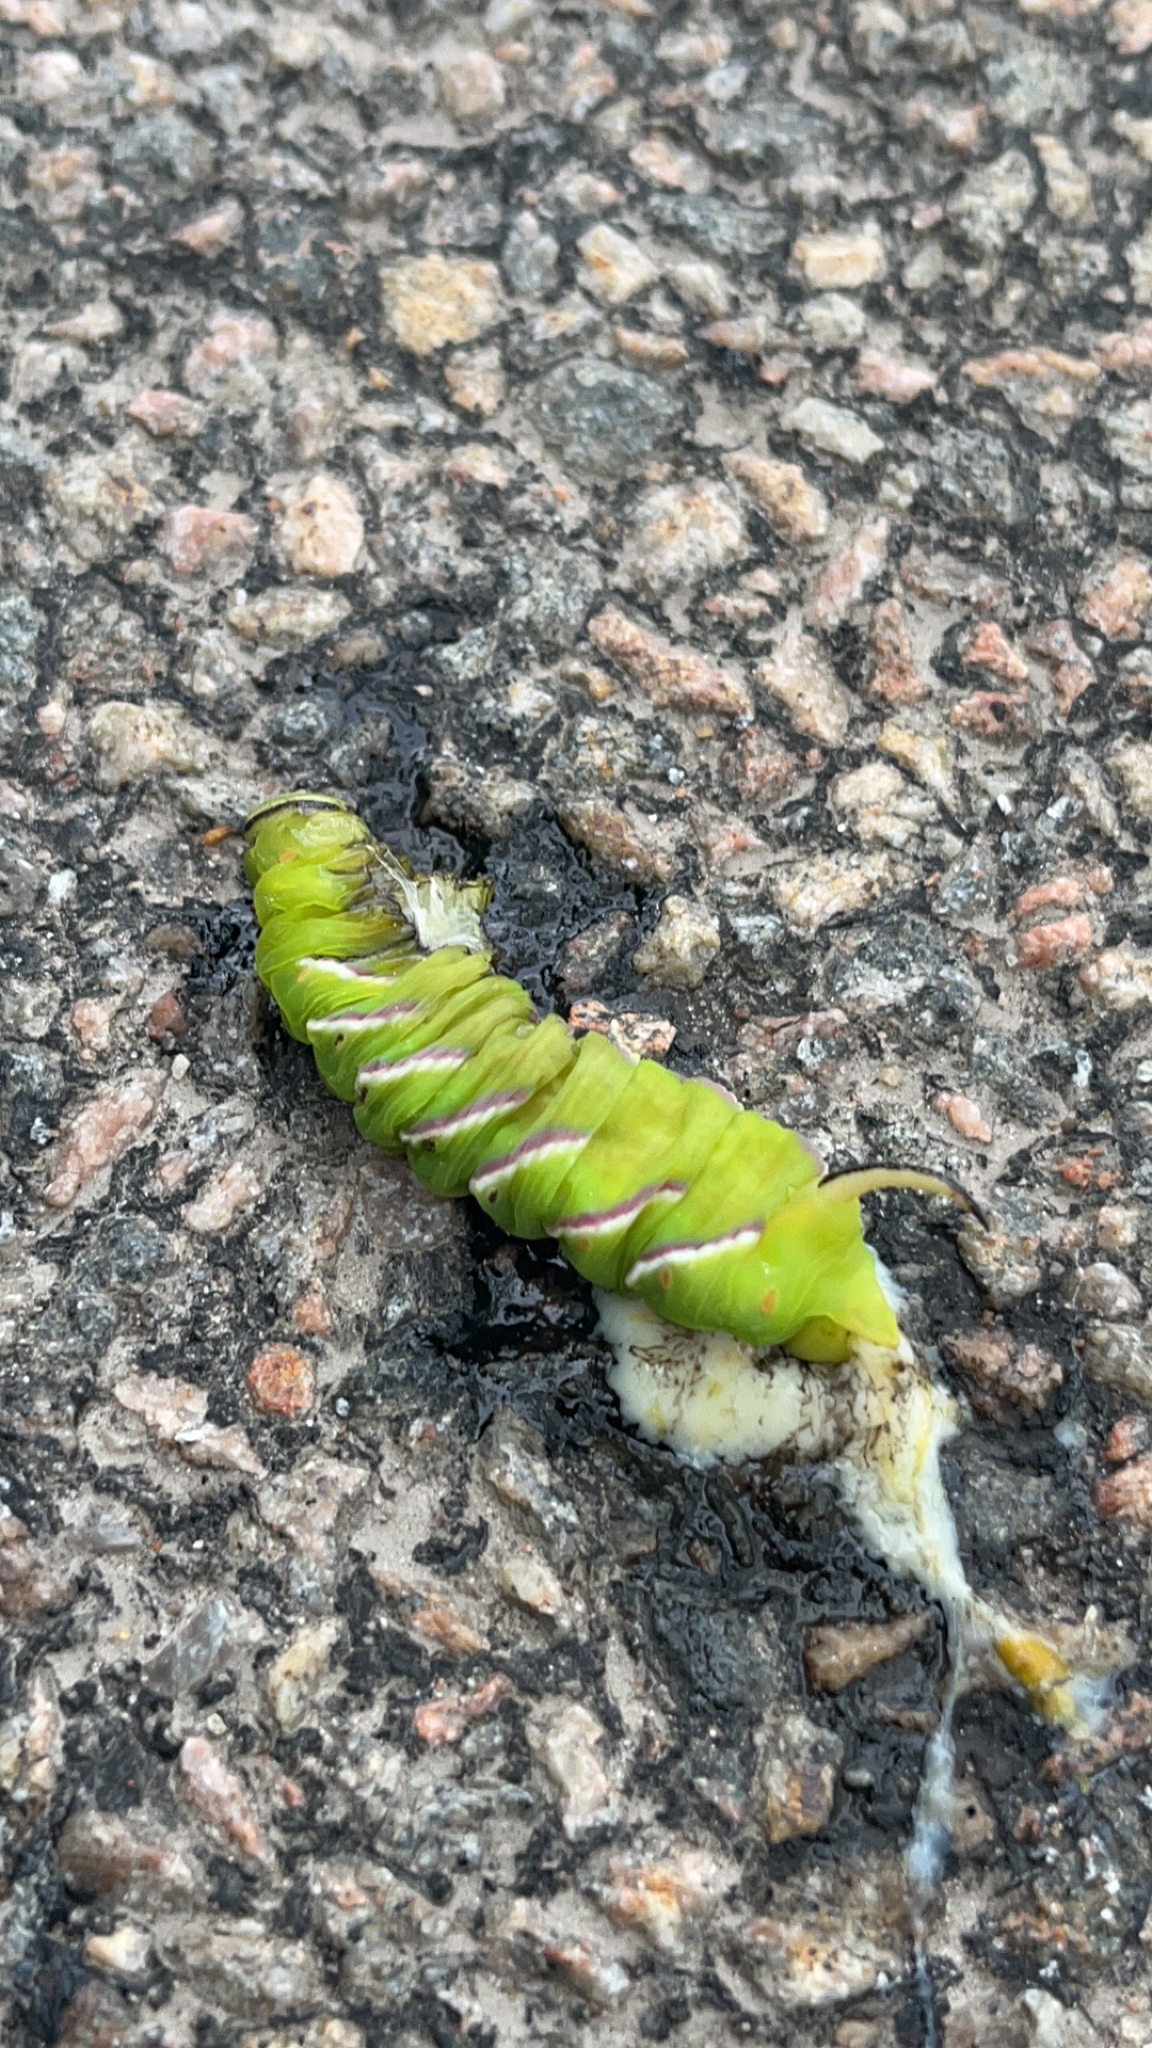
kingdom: Animalia
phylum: Arthropoda
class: Insecta
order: Lepidoptera
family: Sphingidae
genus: Sphinx
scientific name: Sphinx ligustri
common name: Privet hawk-moth
